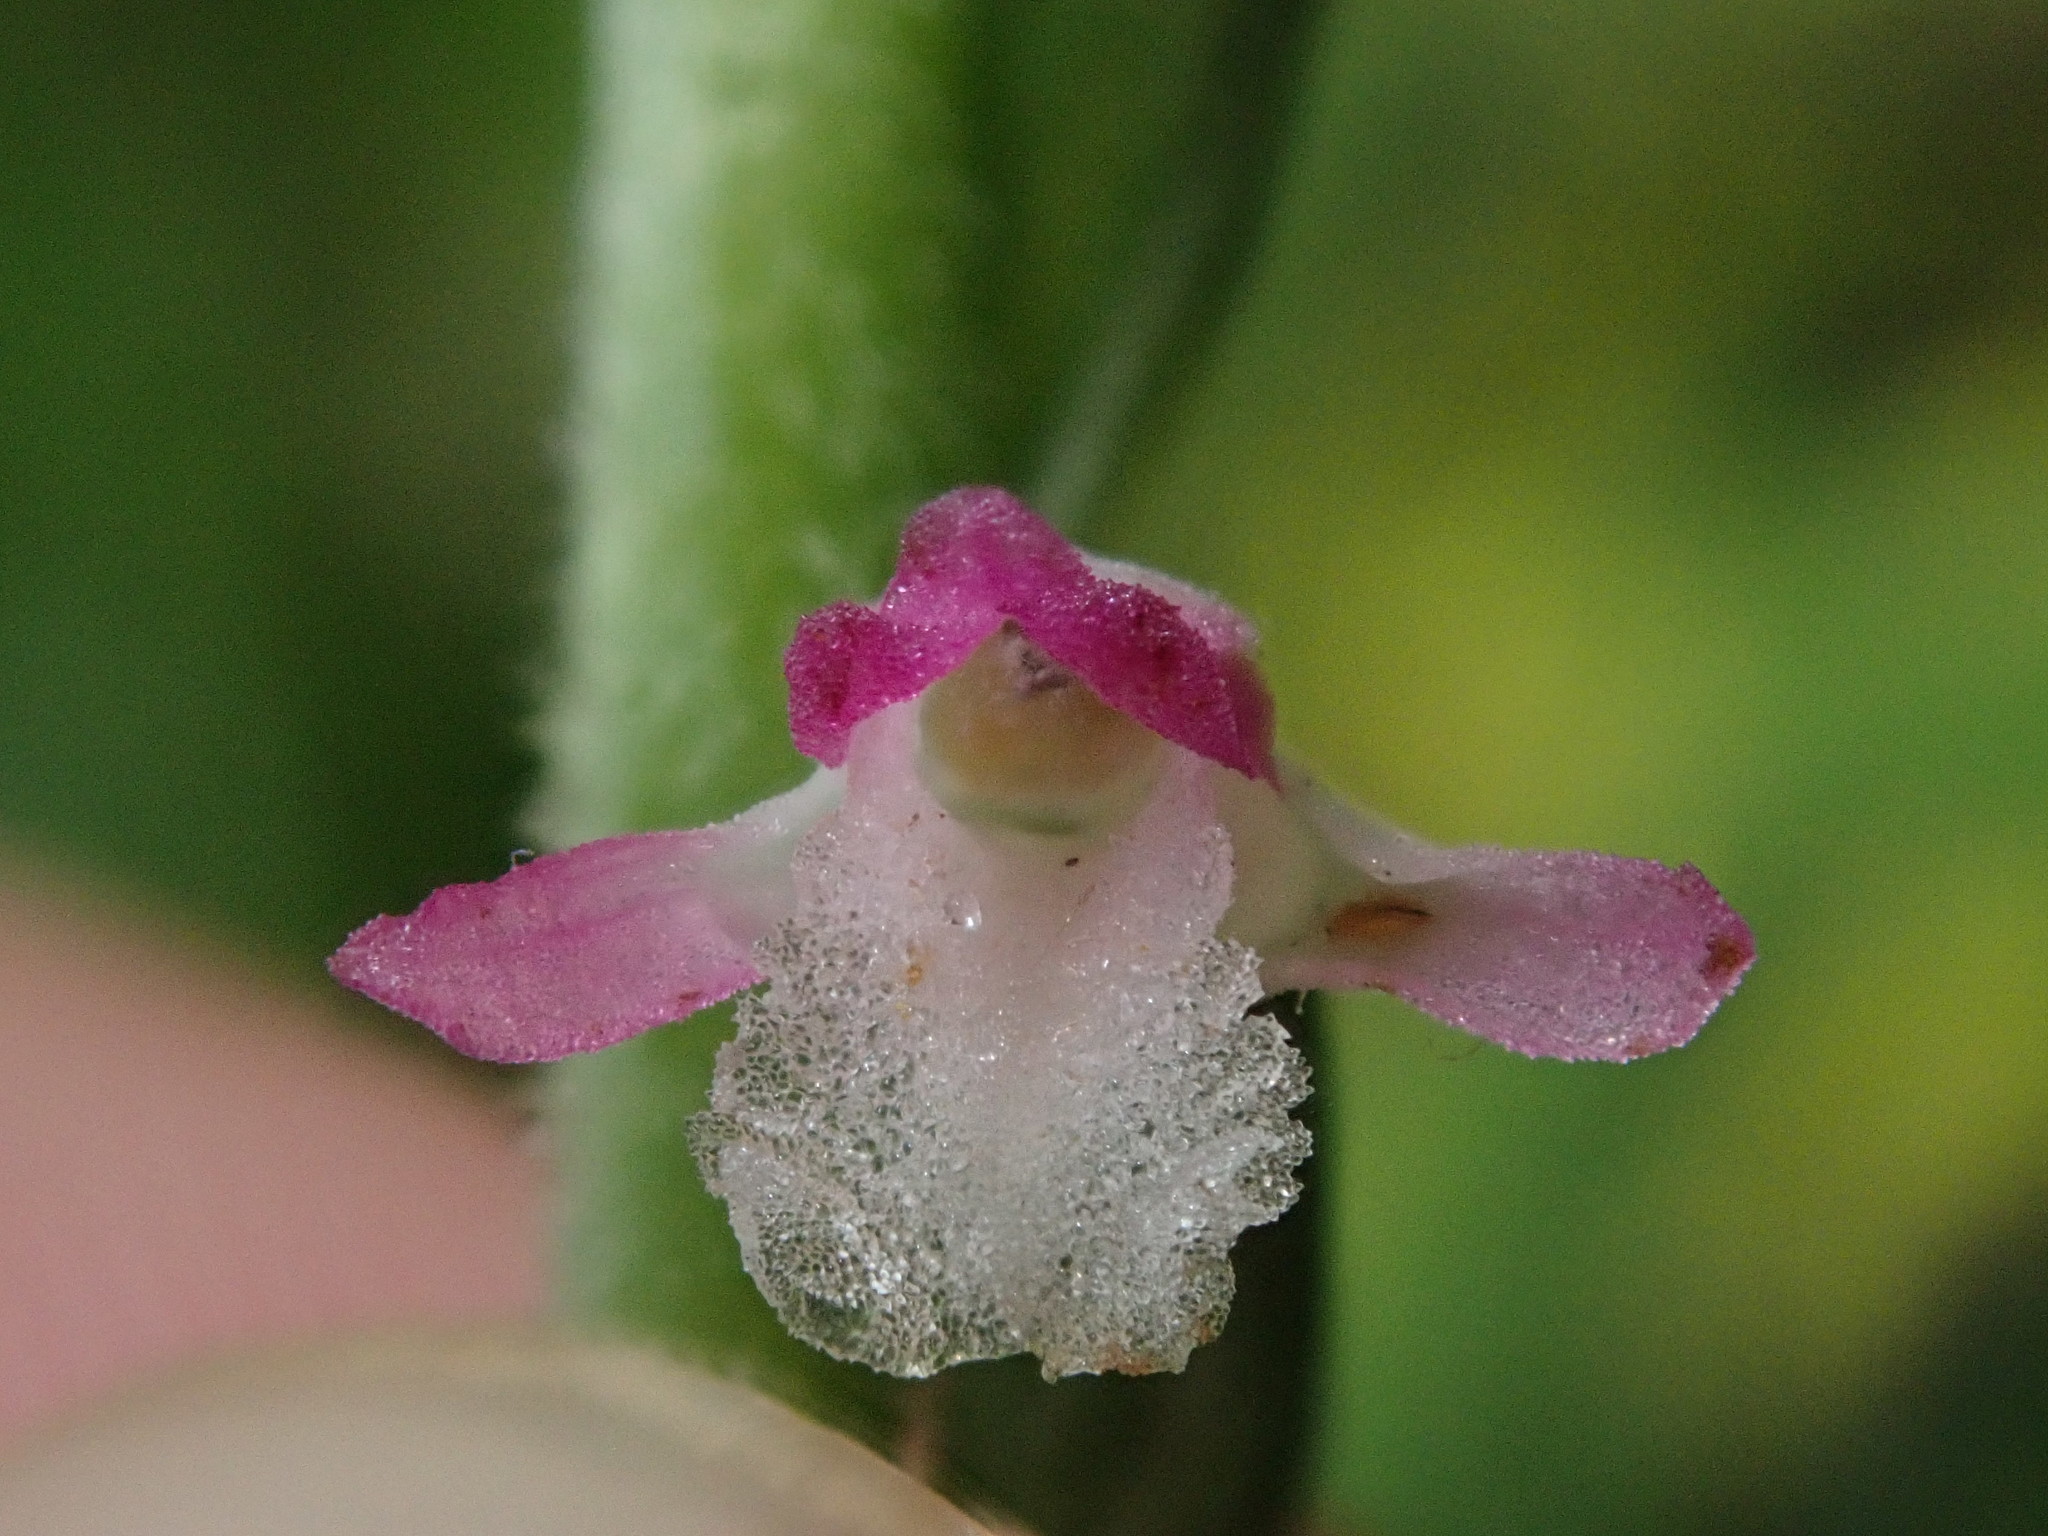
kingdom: Plantae
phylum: Tracheophyta
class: Liliopsida
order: Asparagales
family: Orchidaceae
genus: Spiranthes
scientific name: Spiranthes australis
